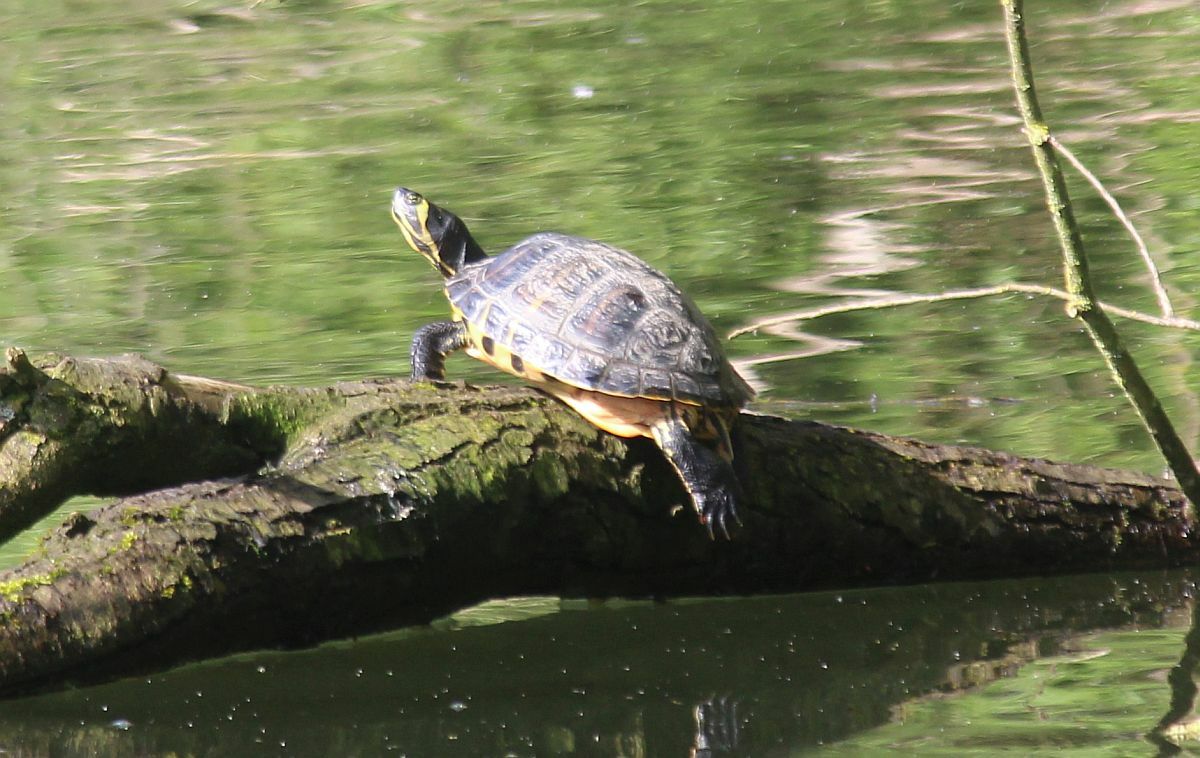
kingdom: Animalia
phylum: Chordata
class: Testudines
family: Emydidae
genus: Trachemys
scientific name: Trachemys scripta
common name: Slider
